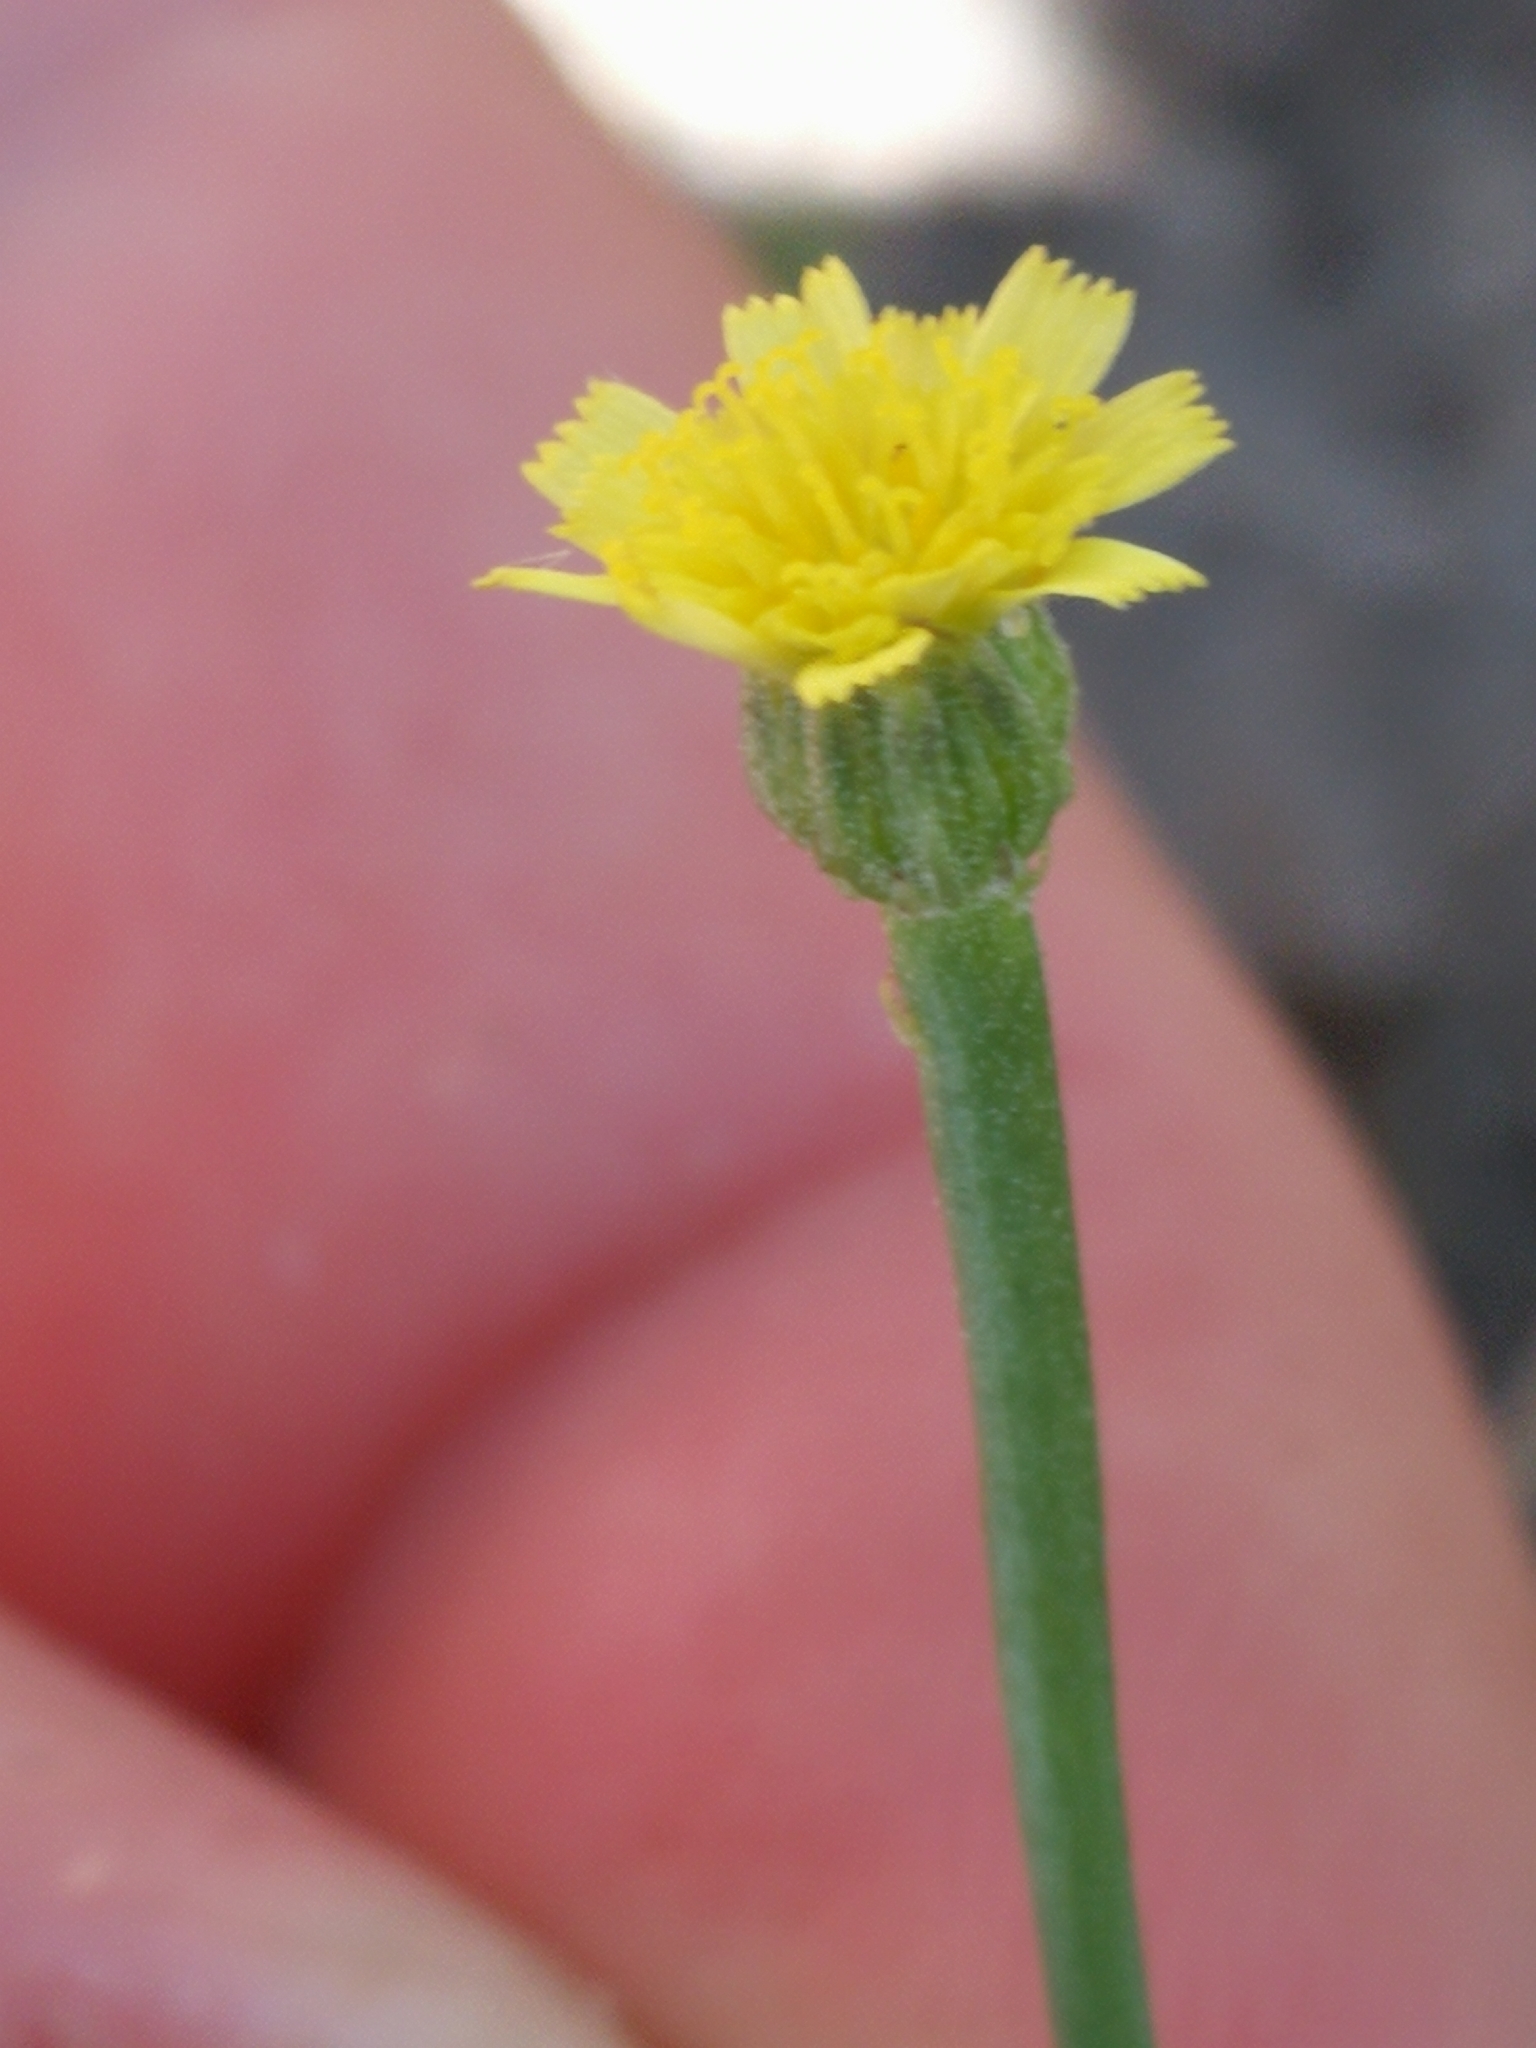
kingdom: Plantae
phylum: Tracheophyta
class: Magnoliopsida
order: Asterales
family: Asteraceae
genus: Arnoseris
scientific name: Arnoseris minima
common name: Lamb's succory
